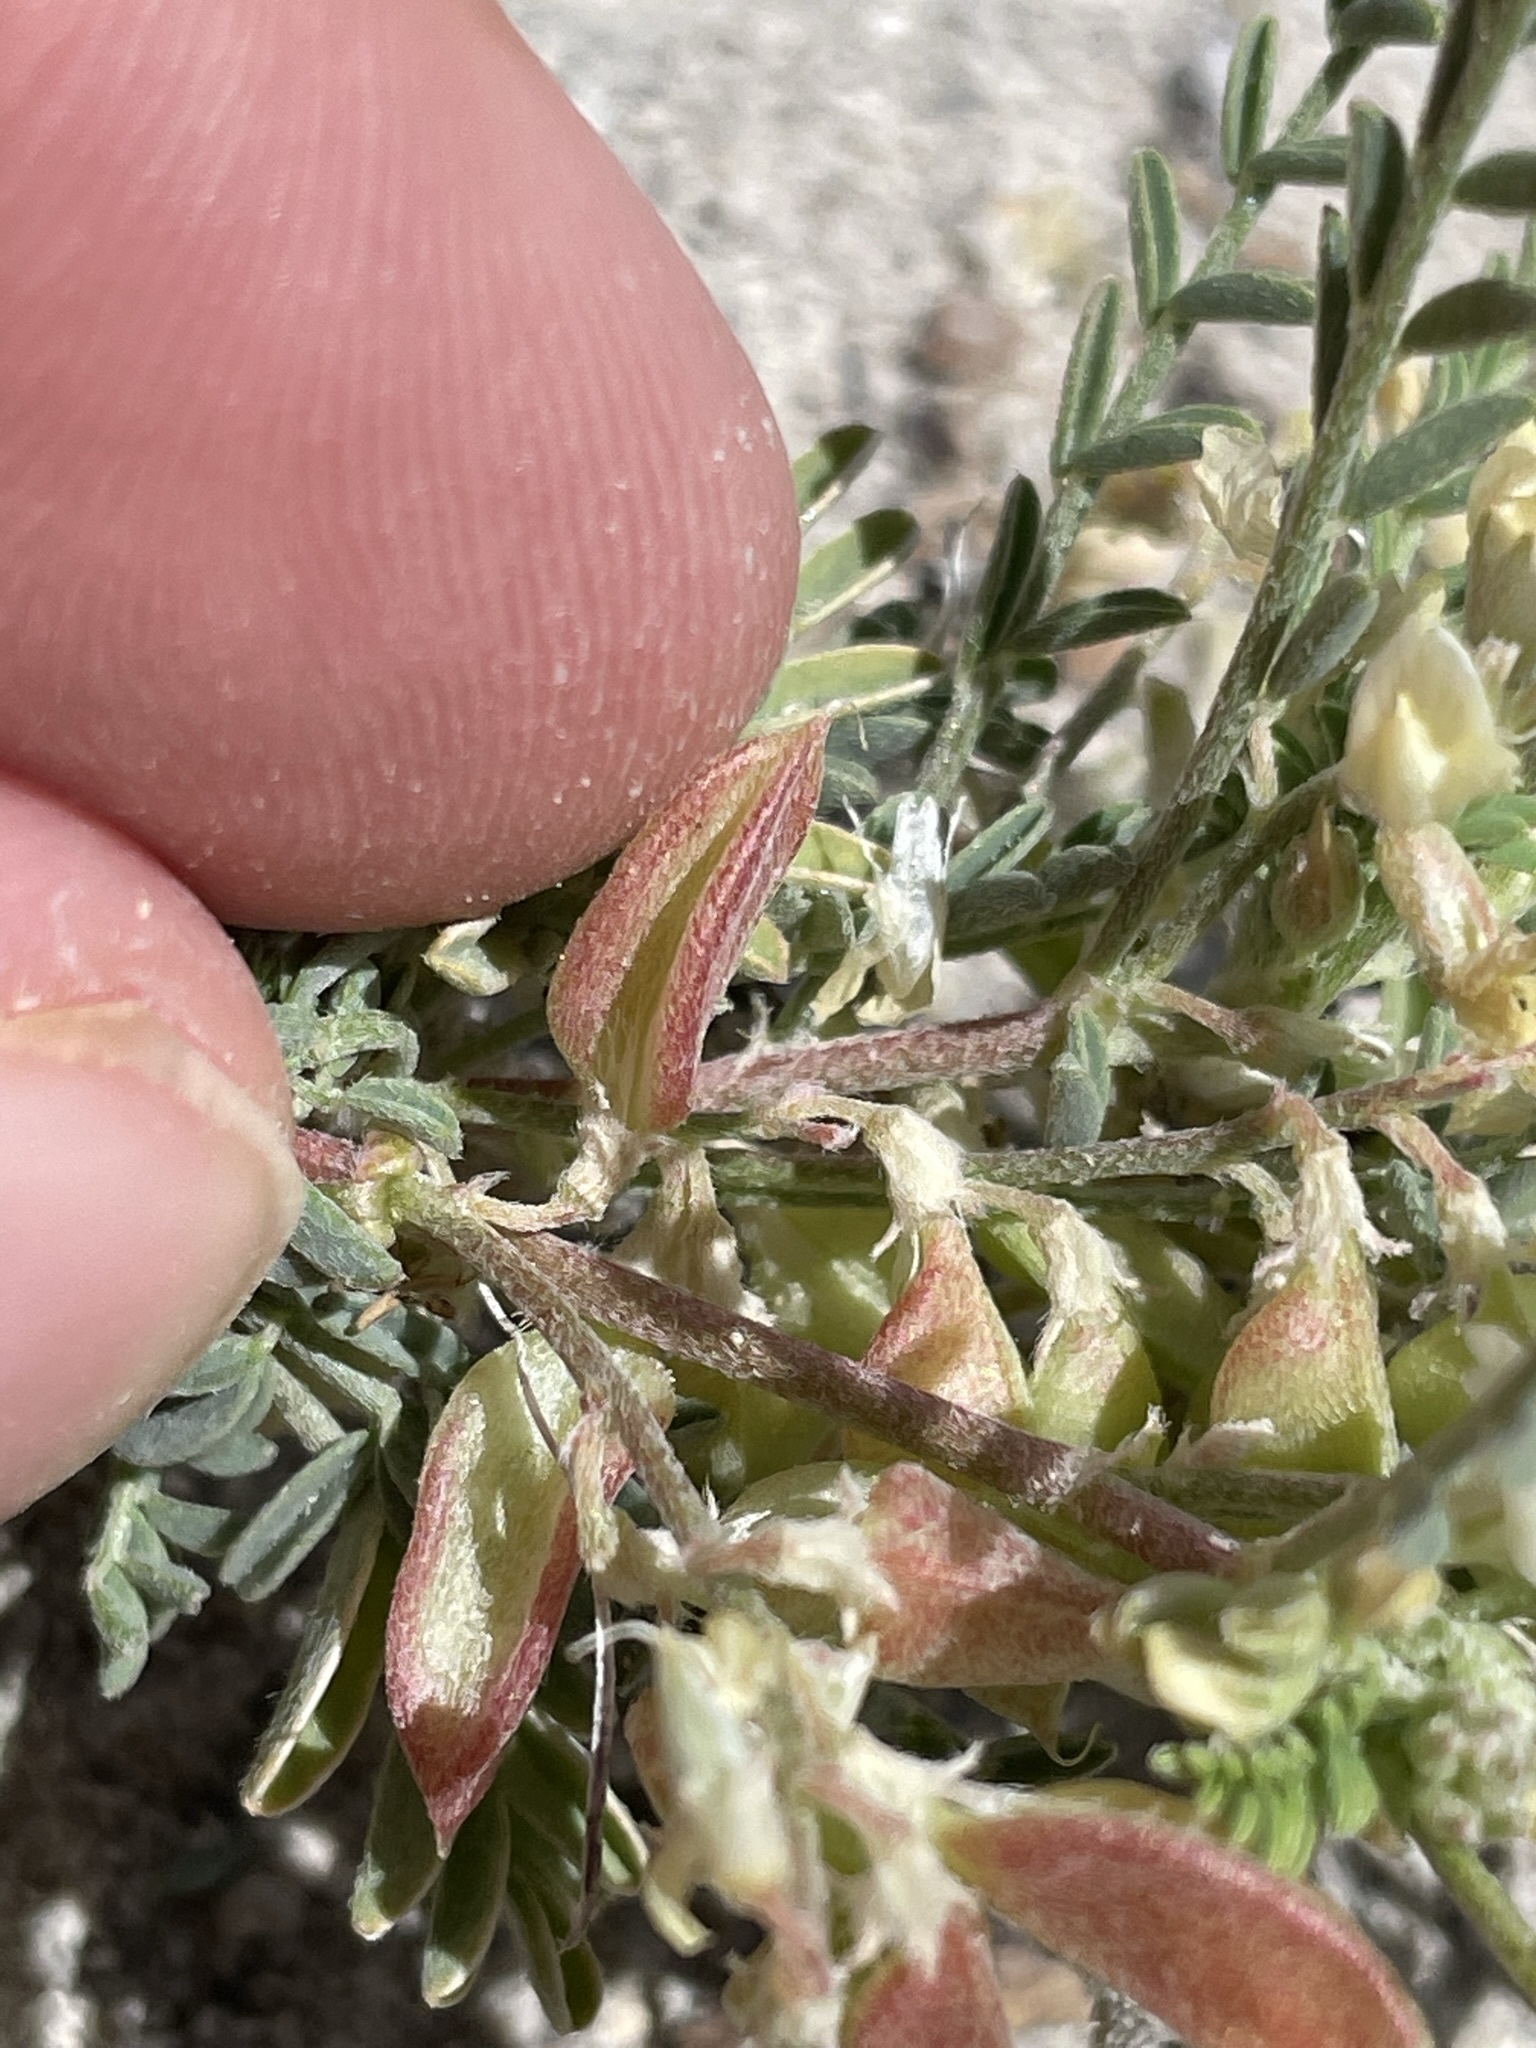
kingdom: Plantae
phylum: Tracheophyta
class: Magnoliopsida
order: Fabales
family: Fabaceae
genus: Astragalus
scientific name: Astragalus monoensis
